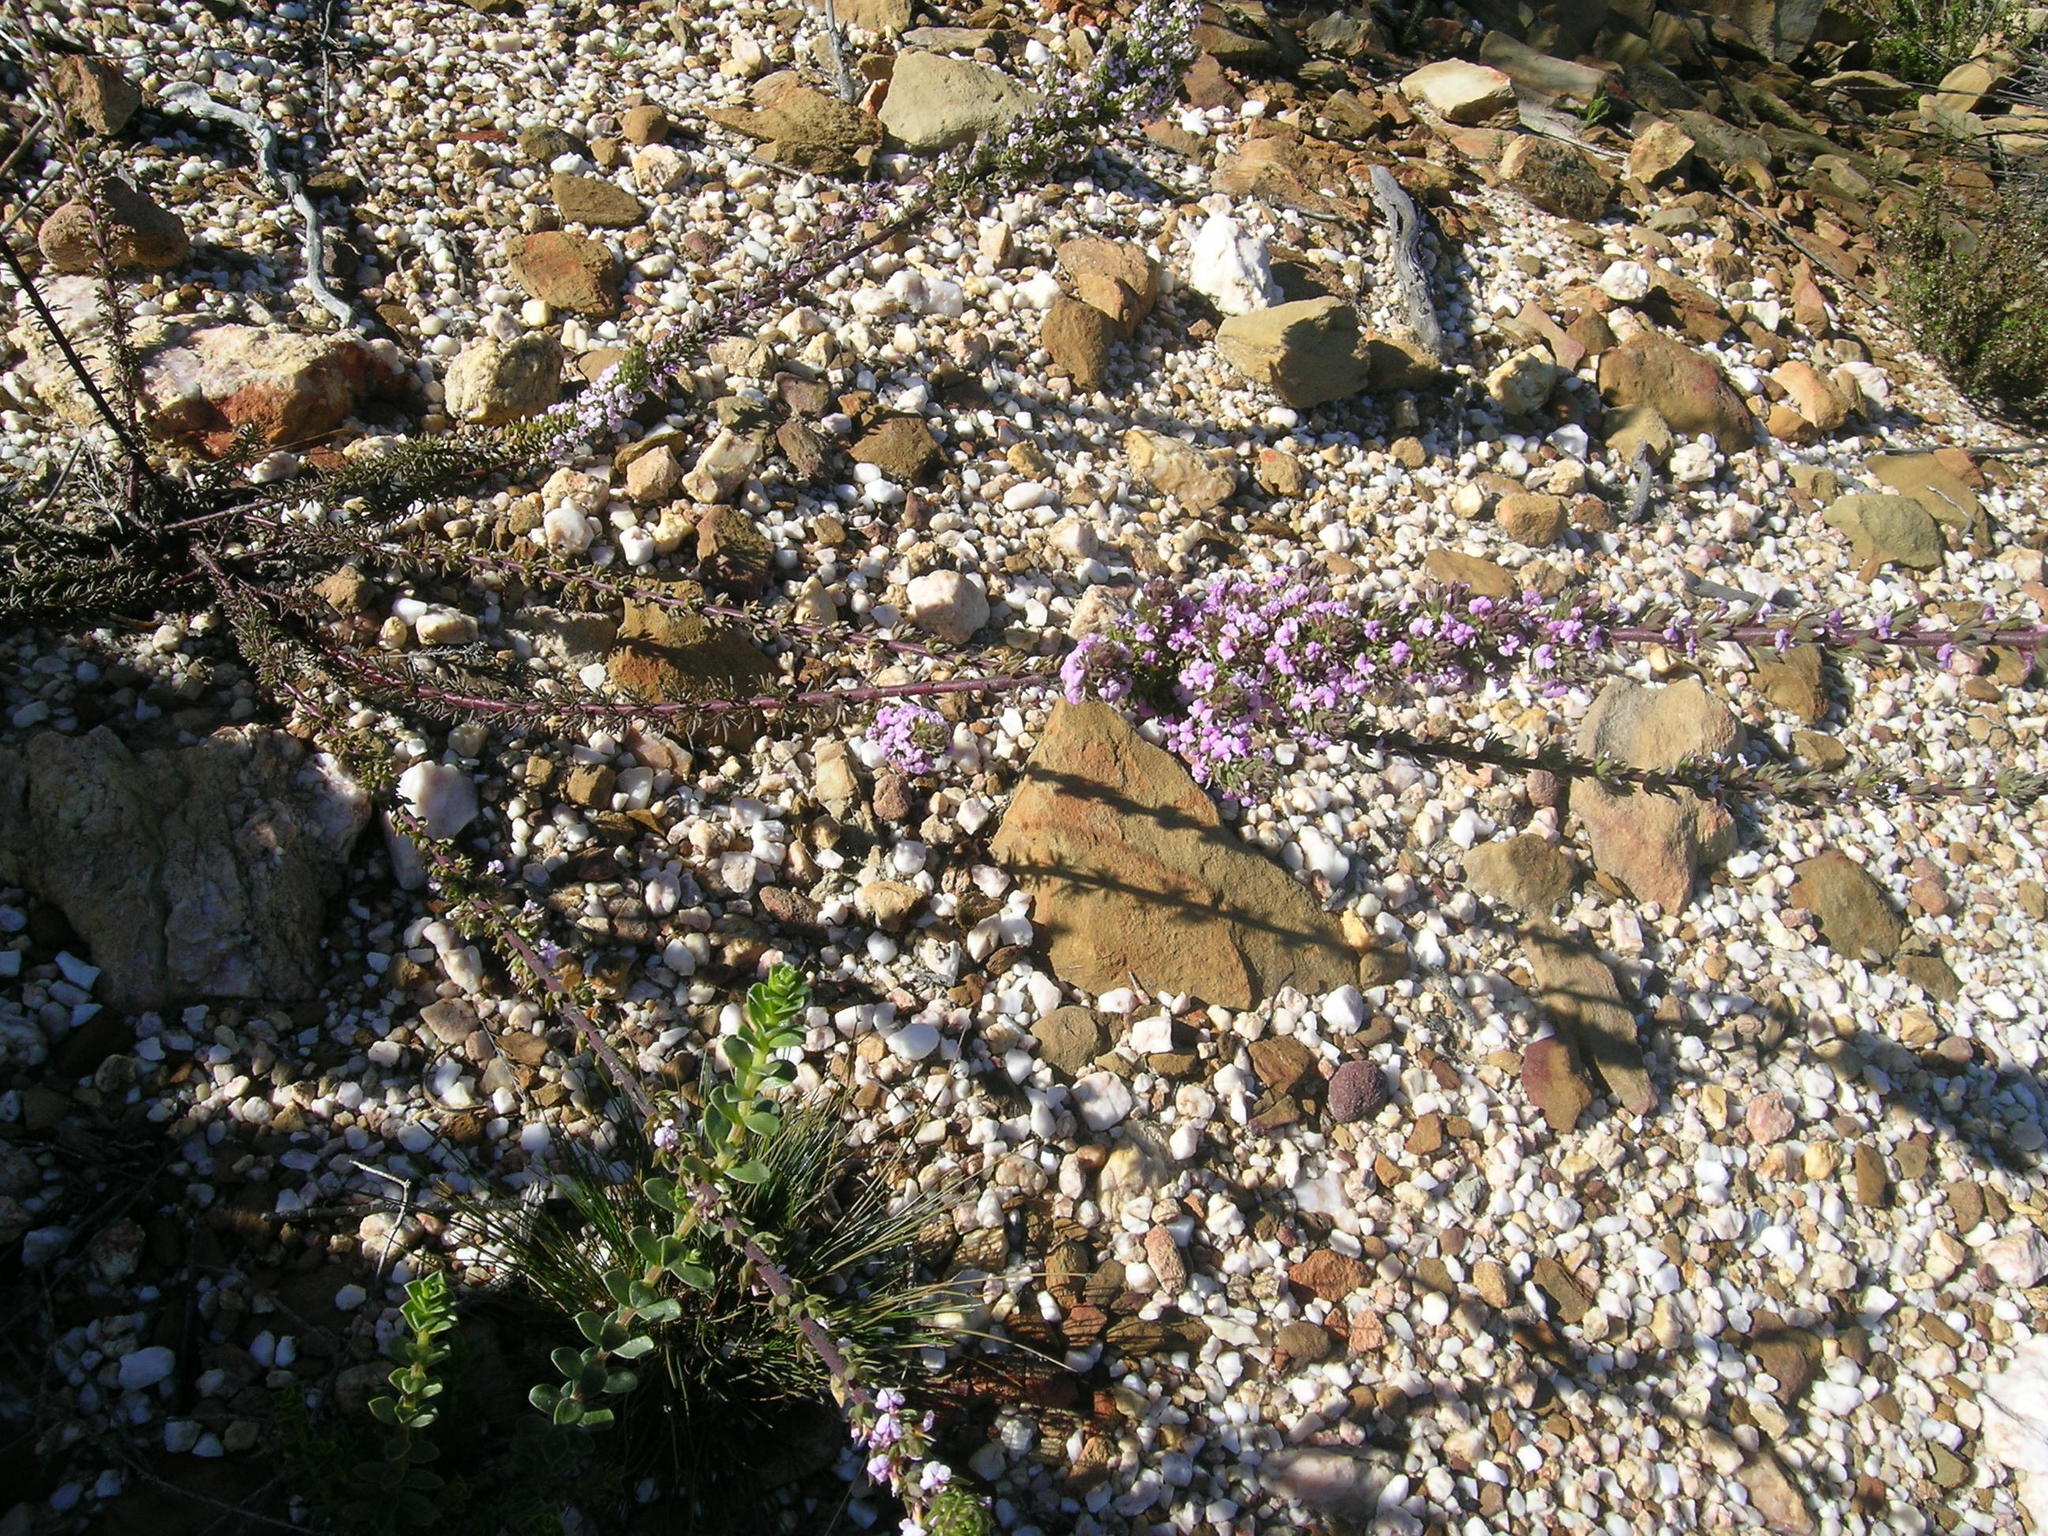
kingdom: Plantae
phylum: Tracheophyta
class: Magnoliopsida
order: Fabales
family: Polygalaceae
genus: Muraltia
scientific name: Muraltia rhamnoides
